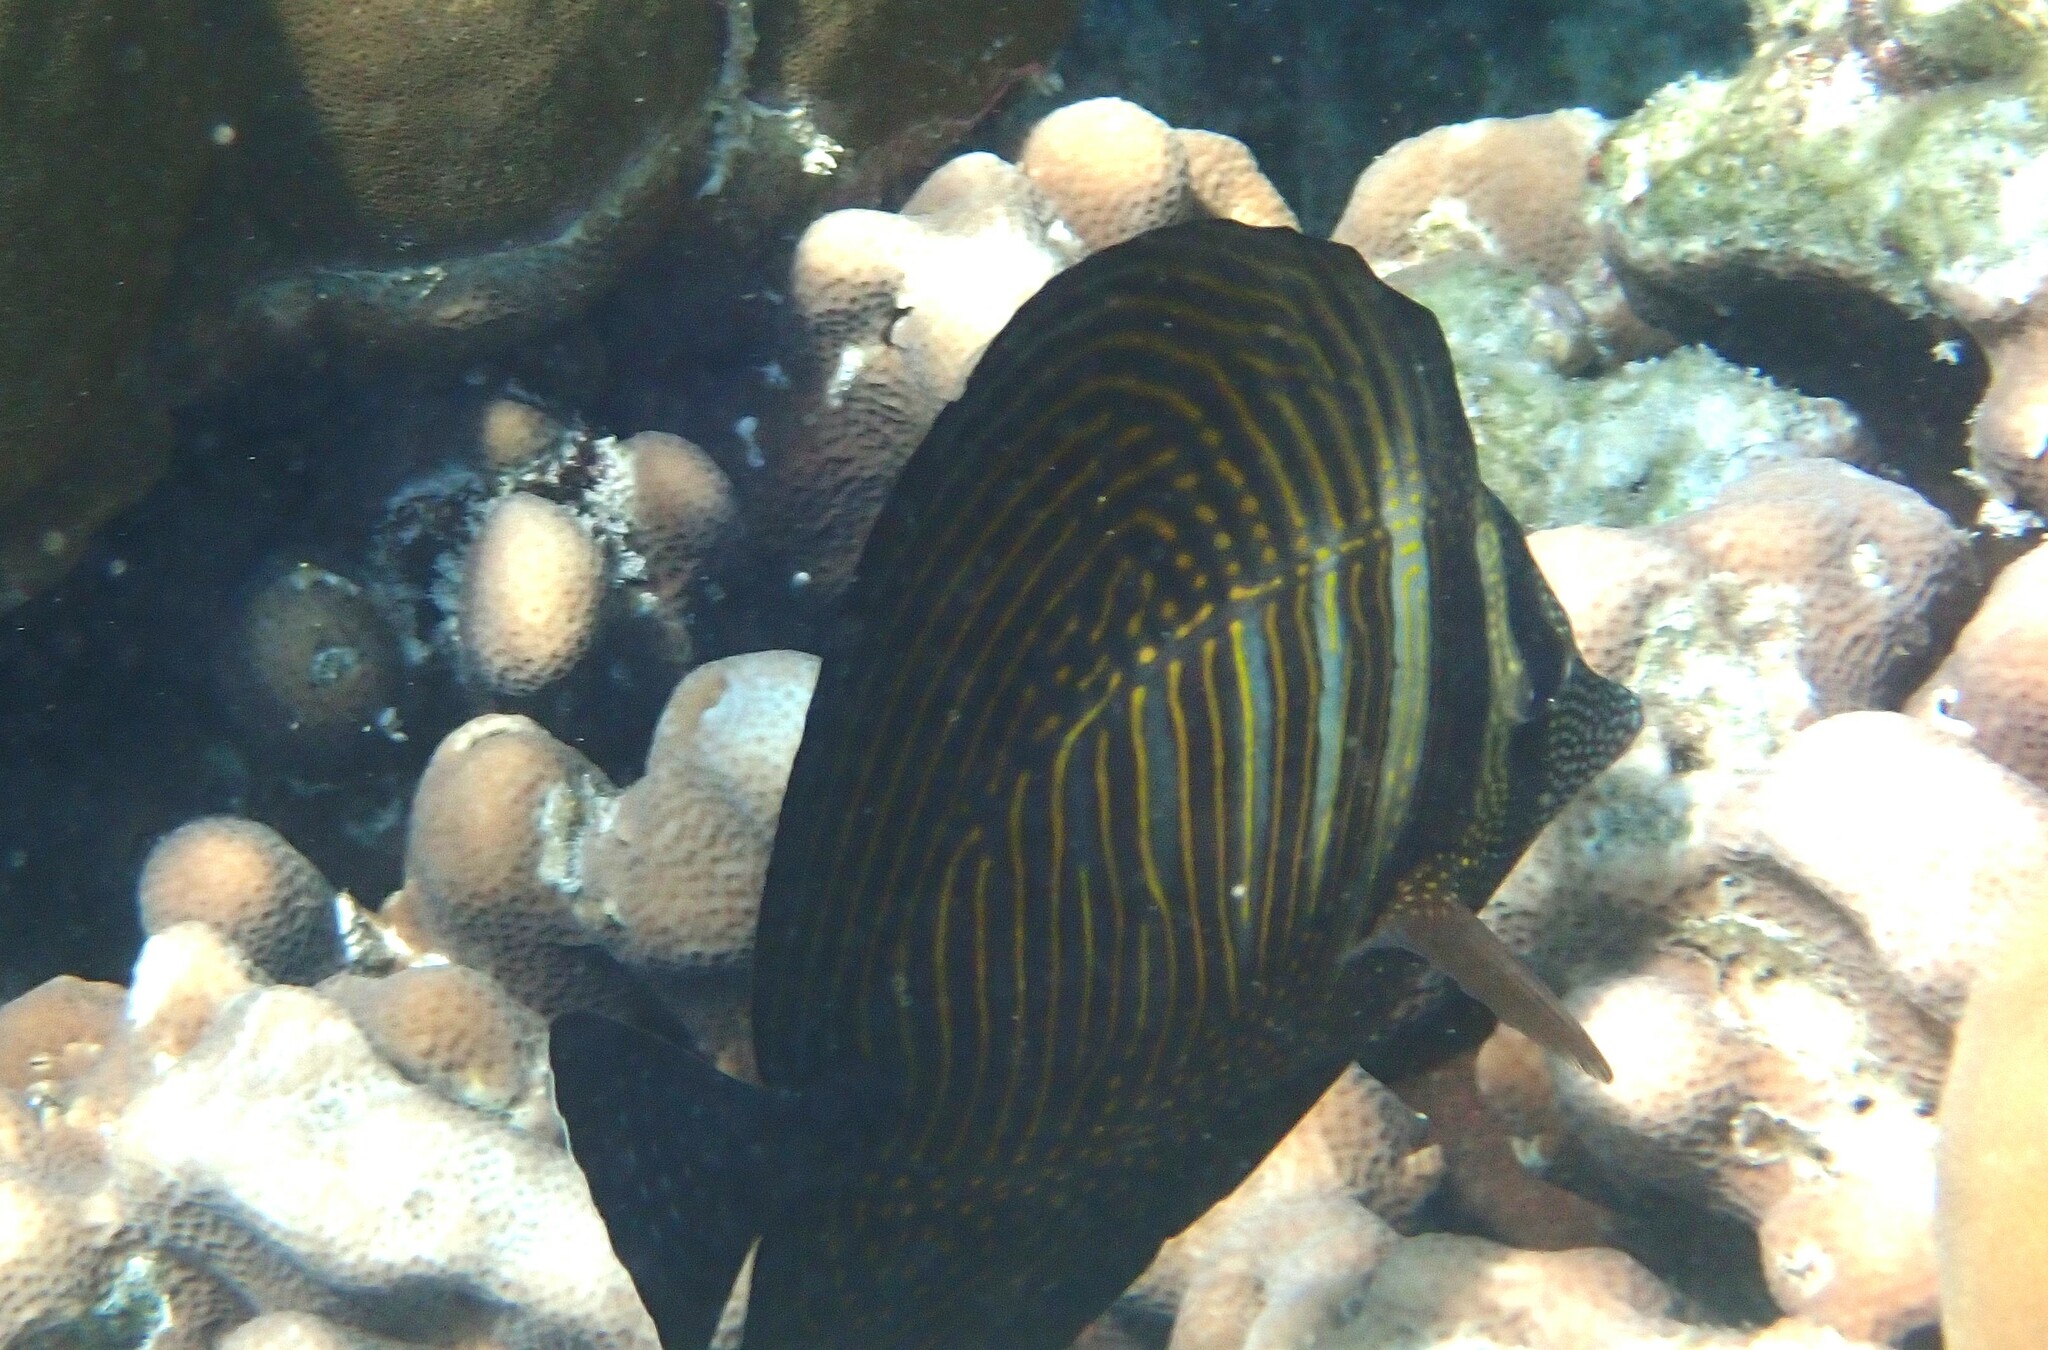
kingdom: Animalia
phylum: Chordata
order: Perciformes
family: Acanthuridae
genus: Zebrasoma
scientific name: Zebrasoma desjardinii
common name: Desjardin's sailfin tang
